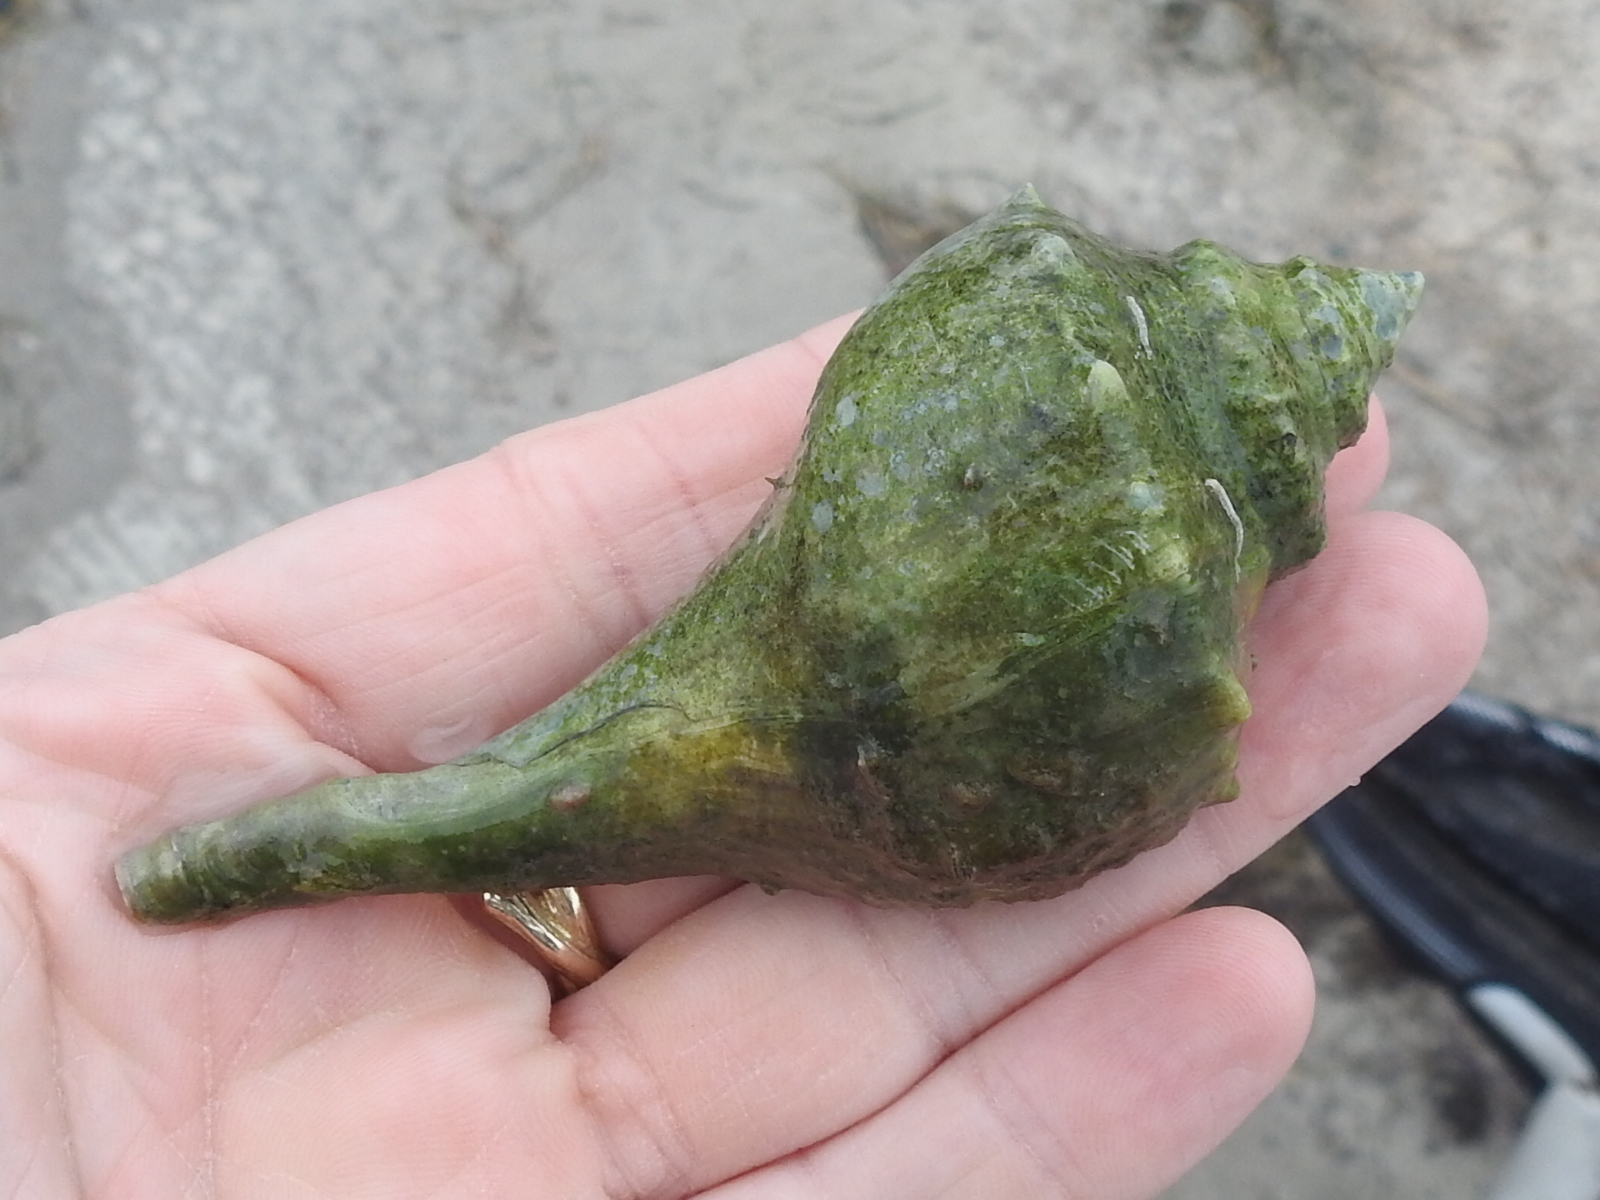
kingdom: Animalia
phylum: Mollusca
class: Gastropoda
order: Neogastropoda
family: Busyconidae
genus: Sinistrofulgur
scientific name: Sinistrofulgur pulleyi
